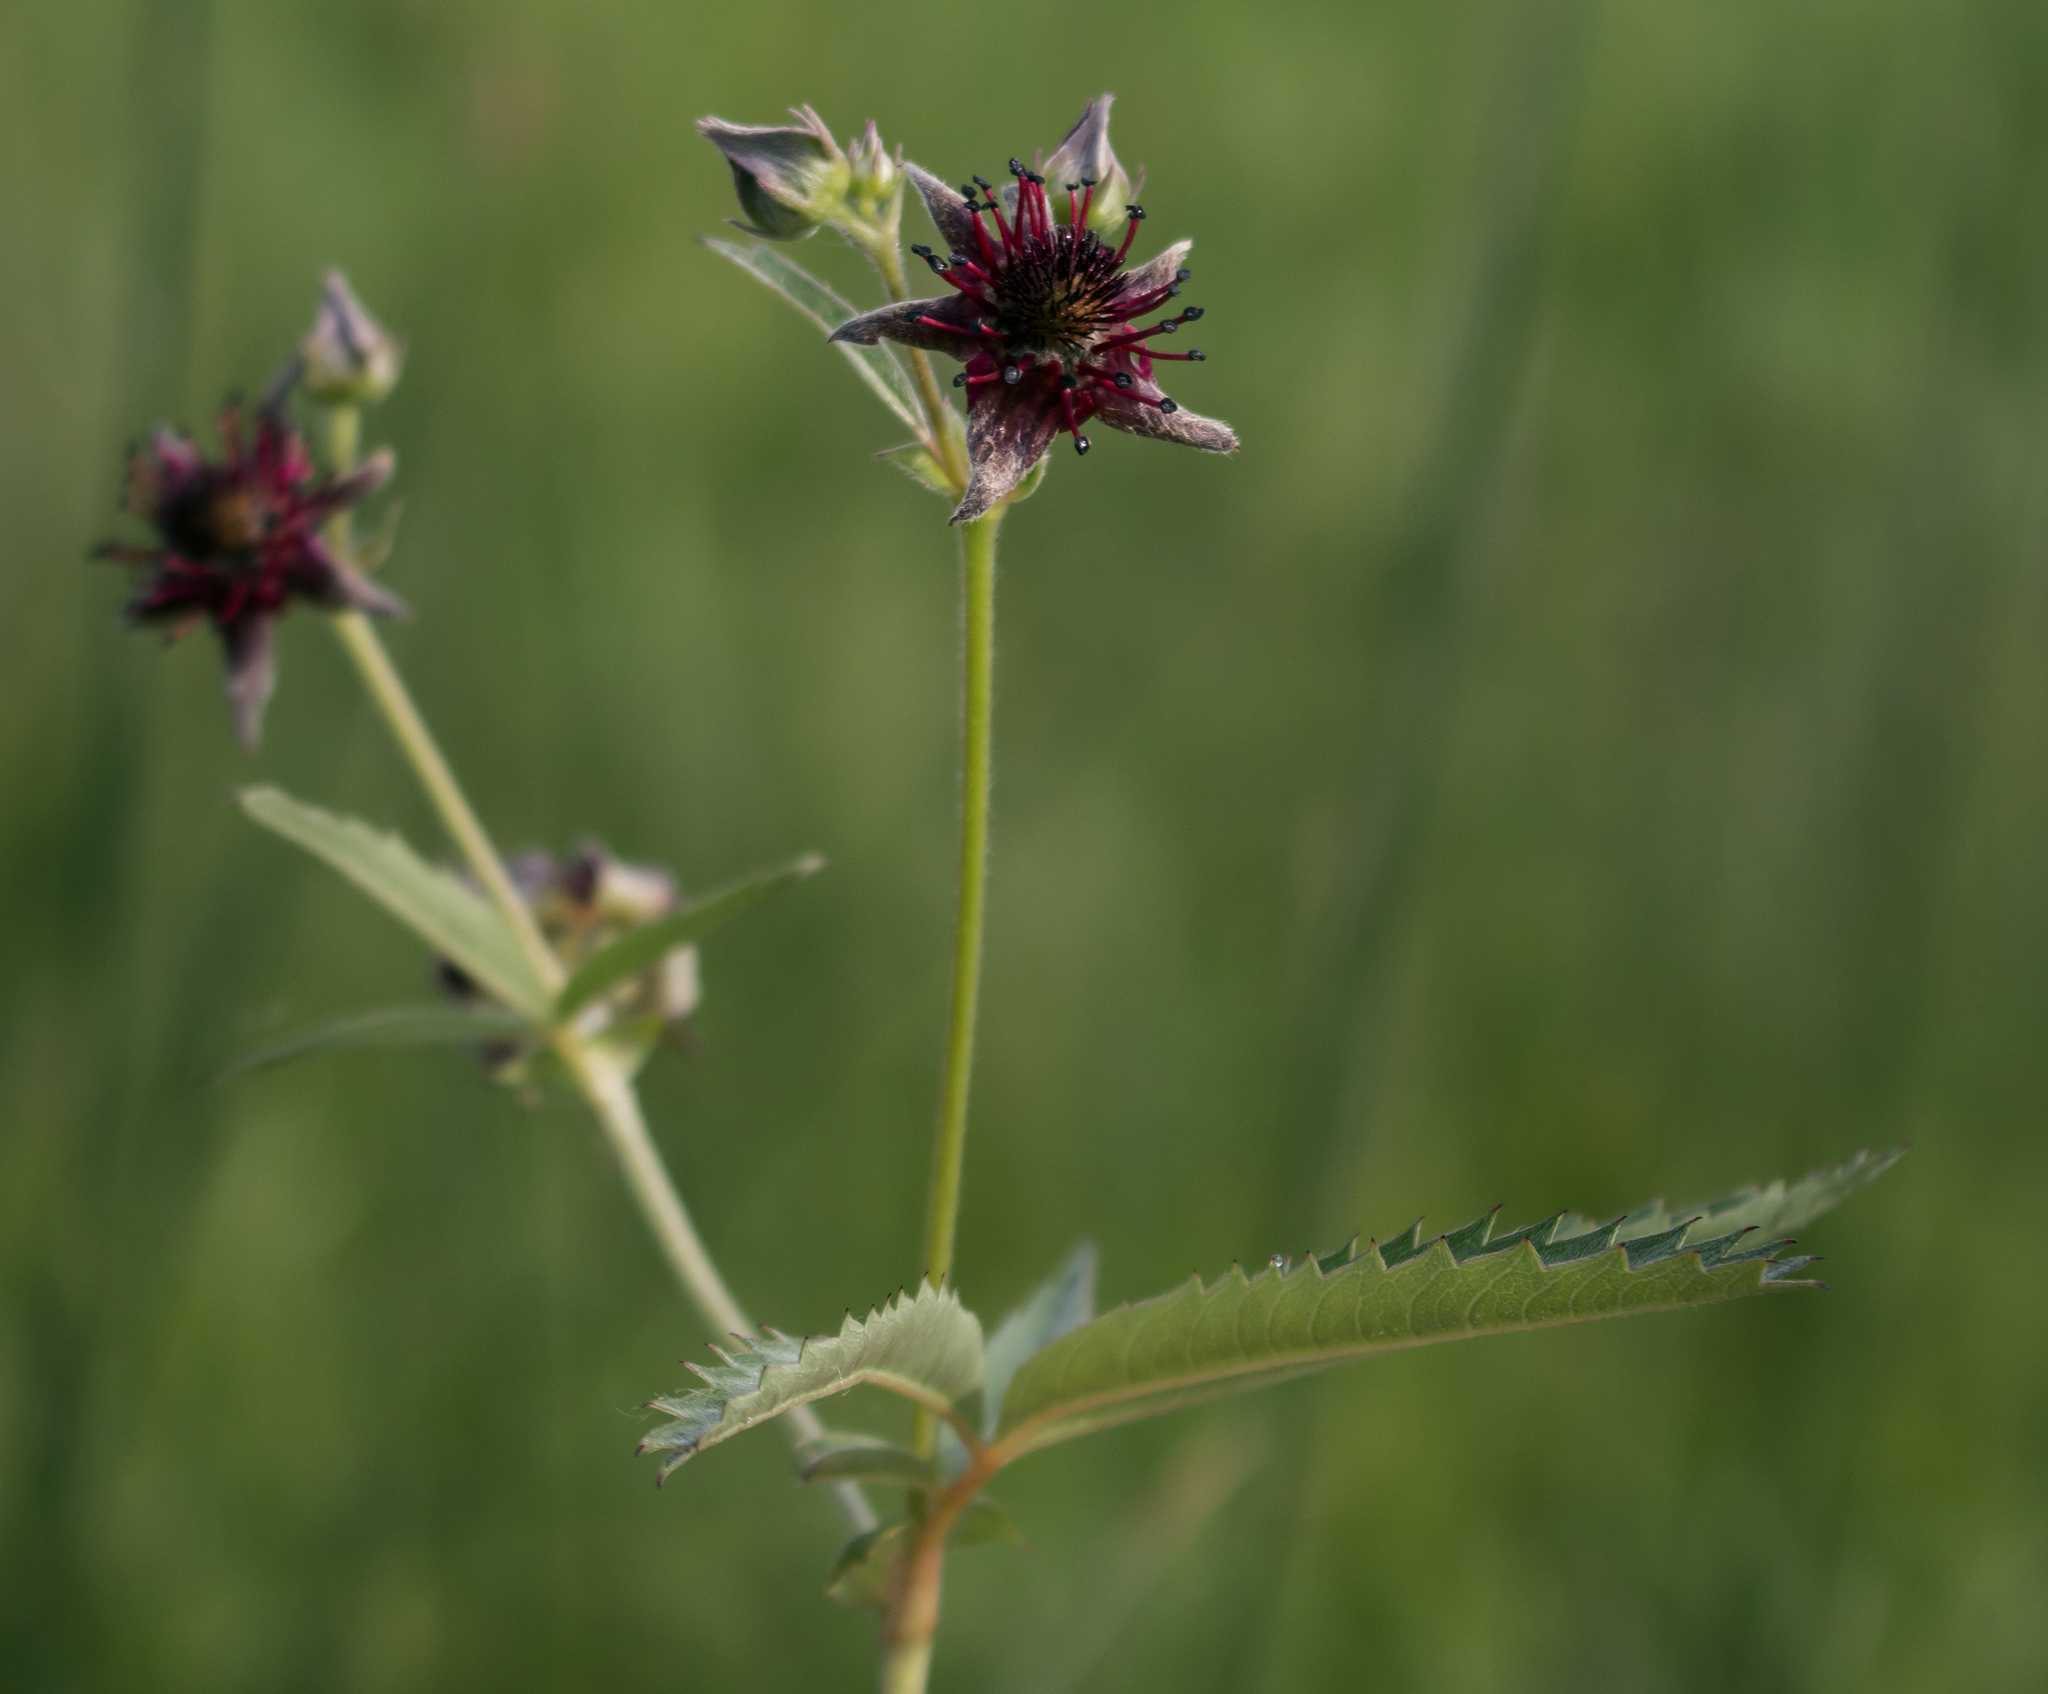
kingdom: Plantae
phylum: Tracheophyta
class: Magnoliopsida
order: Rosales
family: Rosaceae
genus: Comarum
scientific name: Comarum palustre
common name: Marsh cinquefoil
